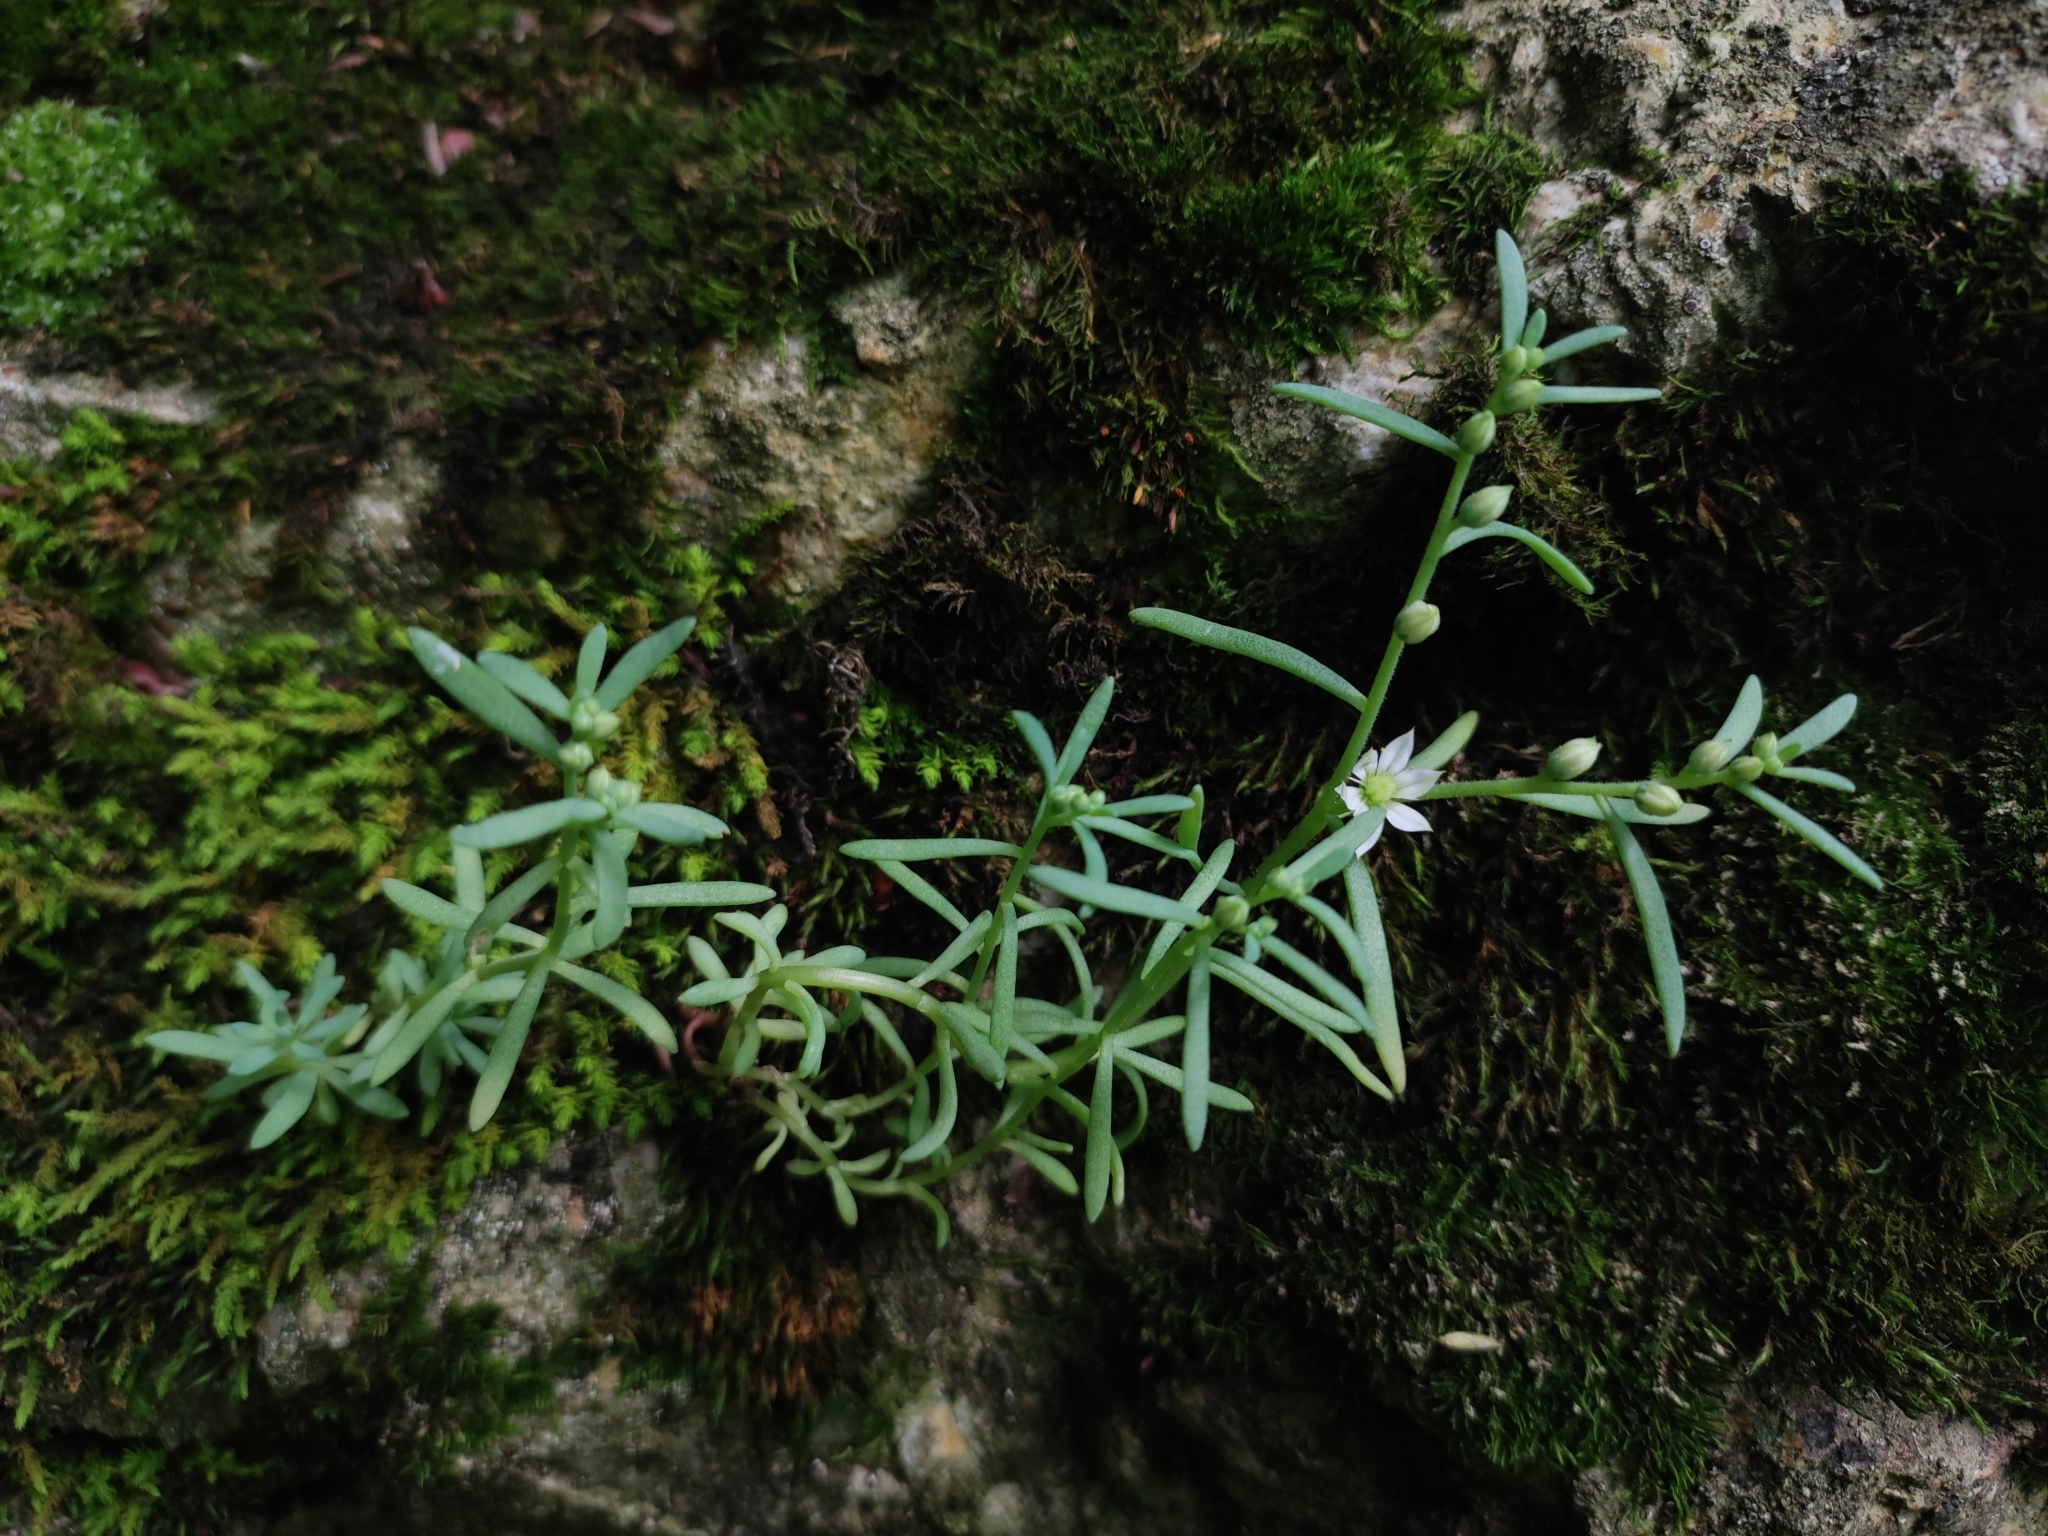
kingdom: Plantae
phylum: Tracheophyta
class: Magnoliopsida
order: Saxifragales
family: Crassulaceae
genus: Sedum
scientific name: Sedum hispanicum
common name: Spanish stonecrop
